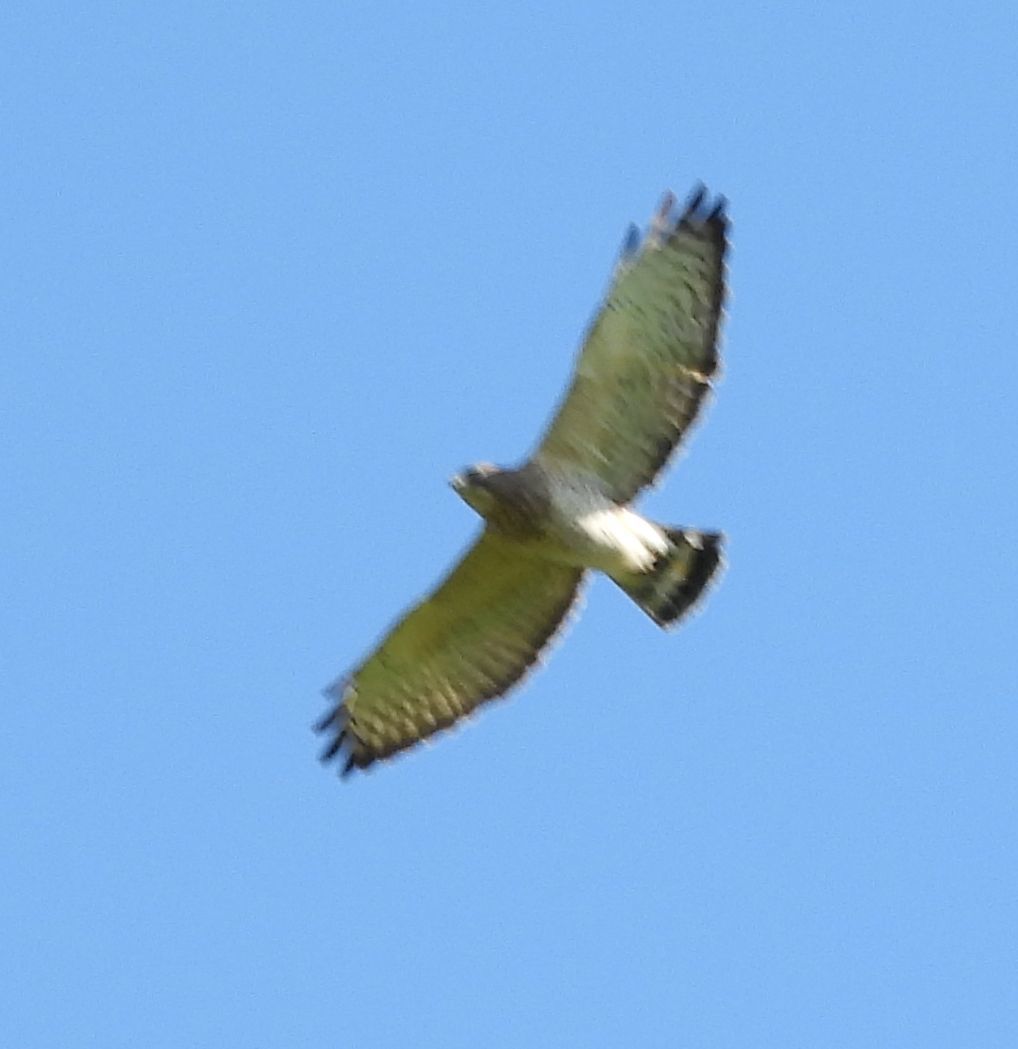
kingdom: Animalia
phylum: Chordata
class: Aves
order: Accipitriformes
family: Accipitridae
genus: Buteo
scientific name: Buteo platypterus
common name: Broad-winged hawk
